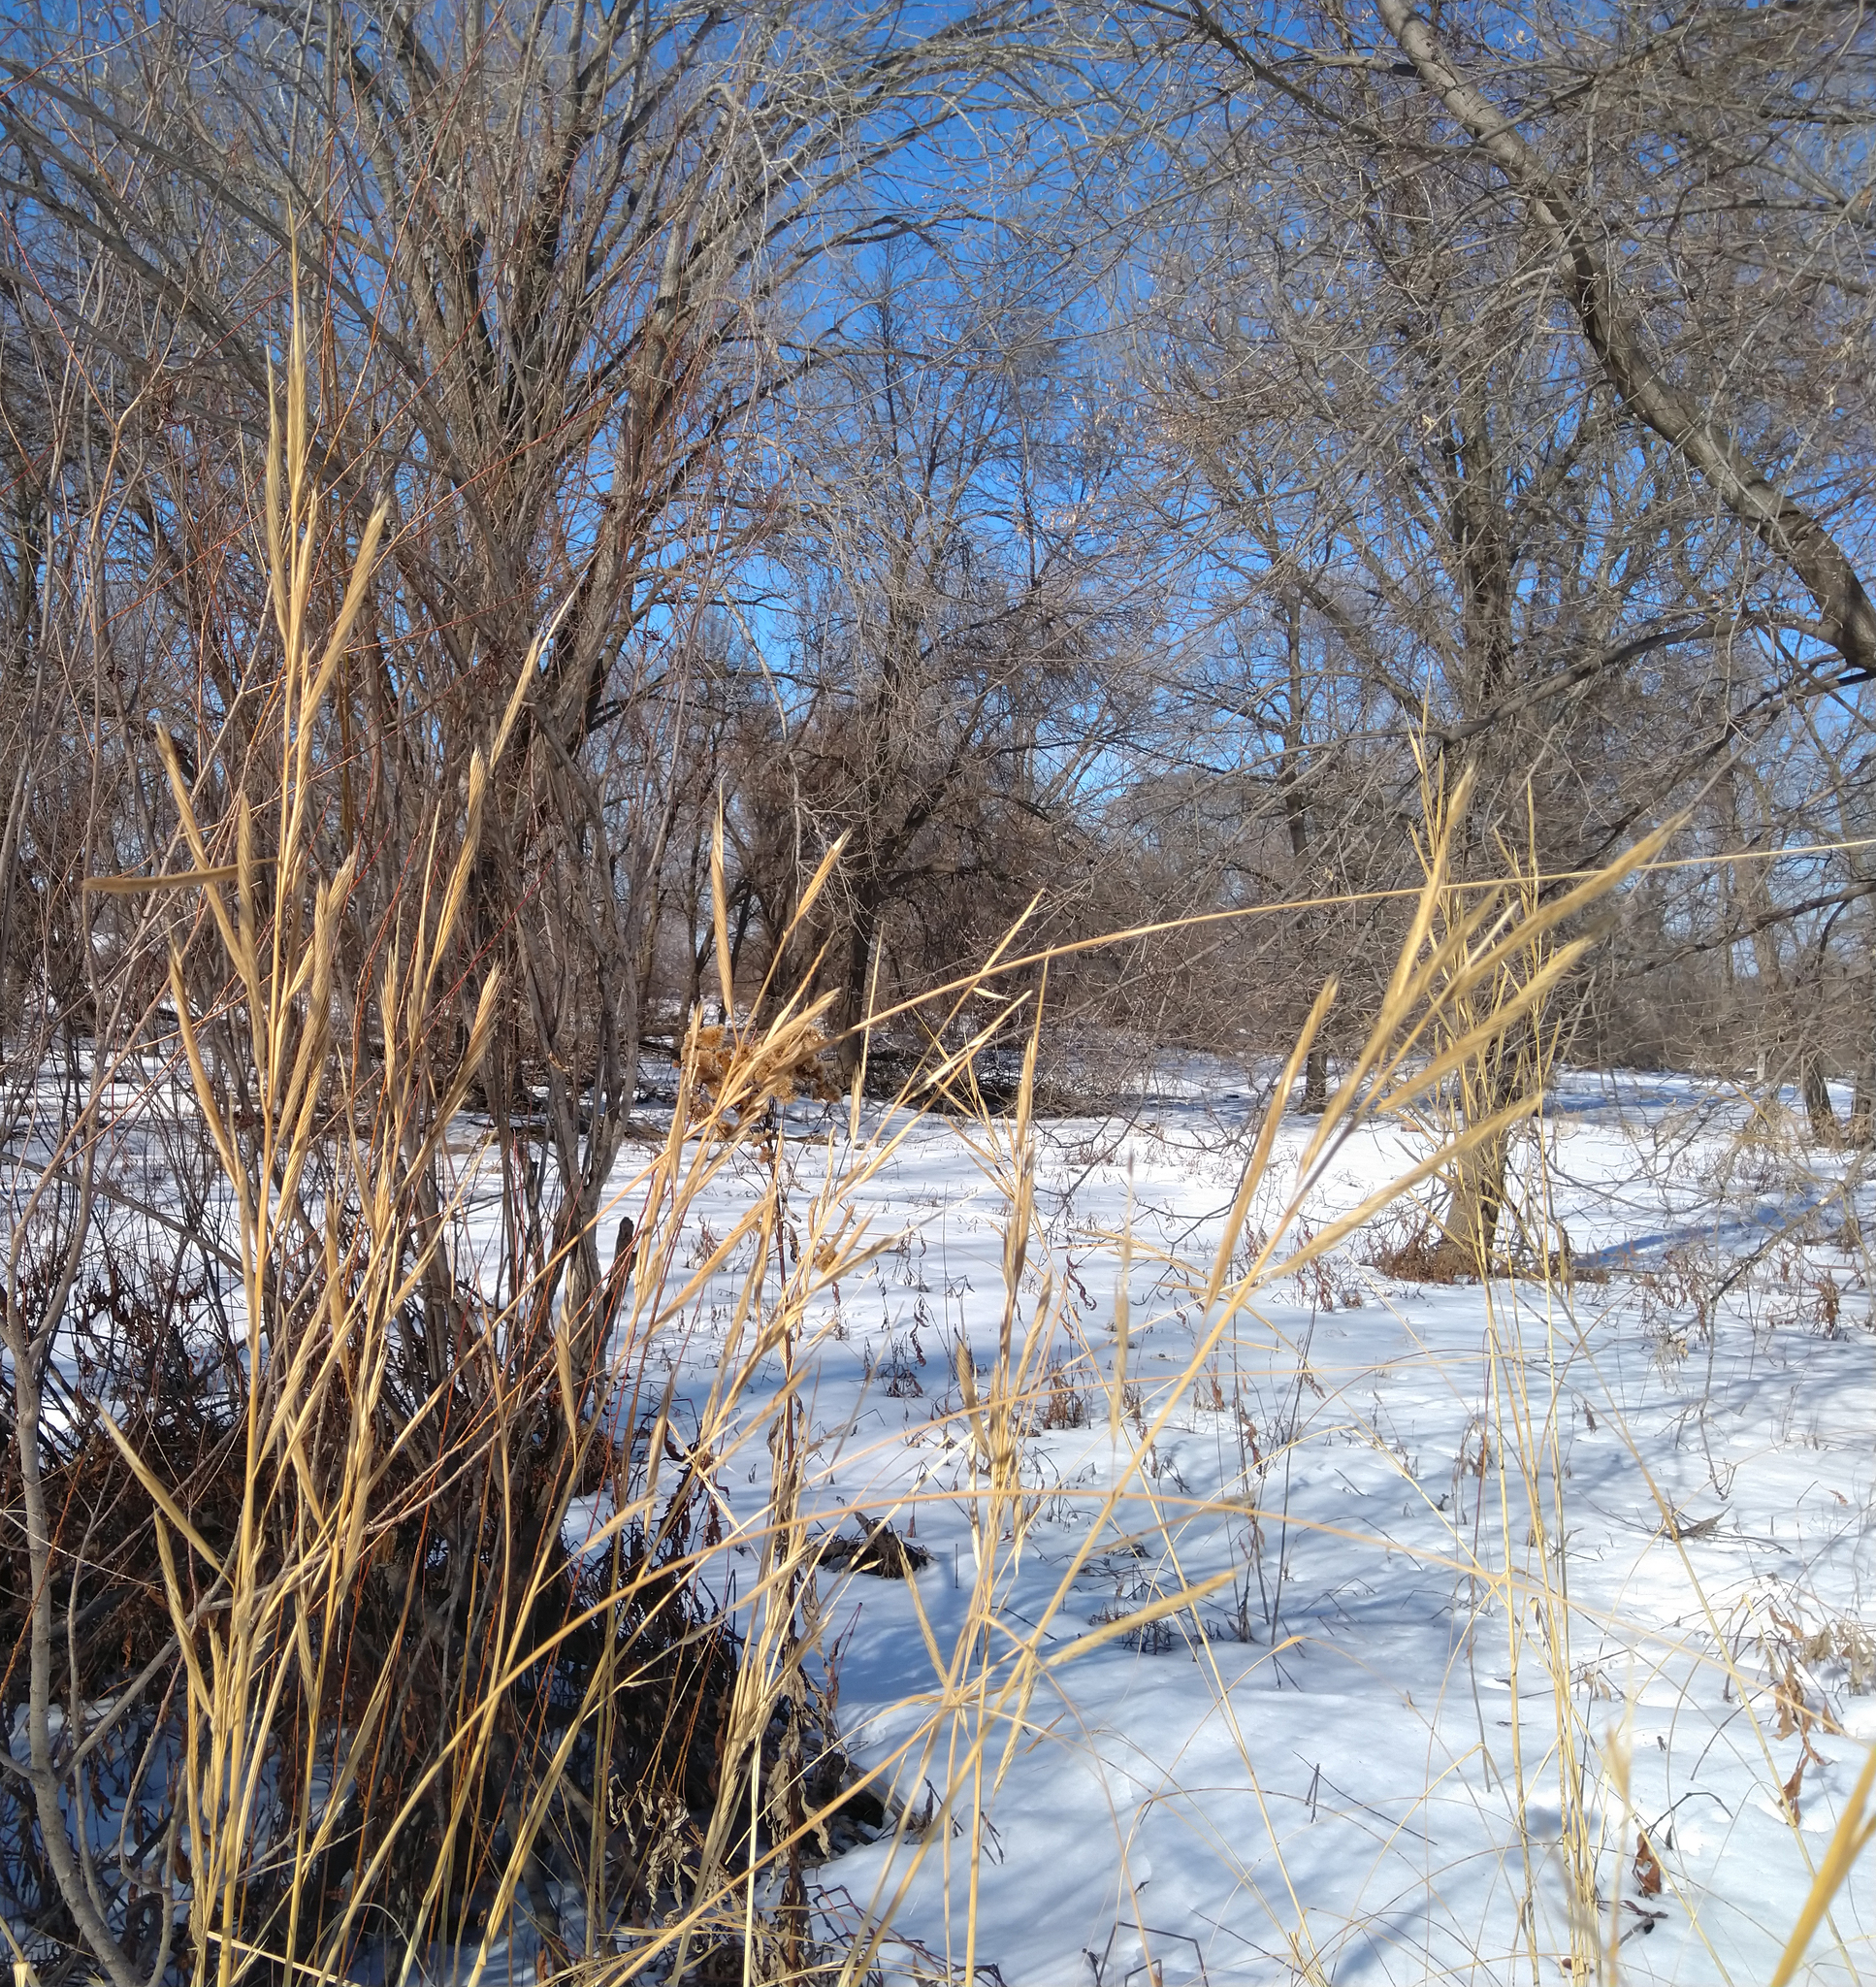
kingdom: Plantae
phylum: Tracheophyta
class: Liliopsida
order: Poales
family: Poaceae
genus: Sporobolus
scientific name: Sporobolus michauxianus
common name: Freshwater cordgrass
